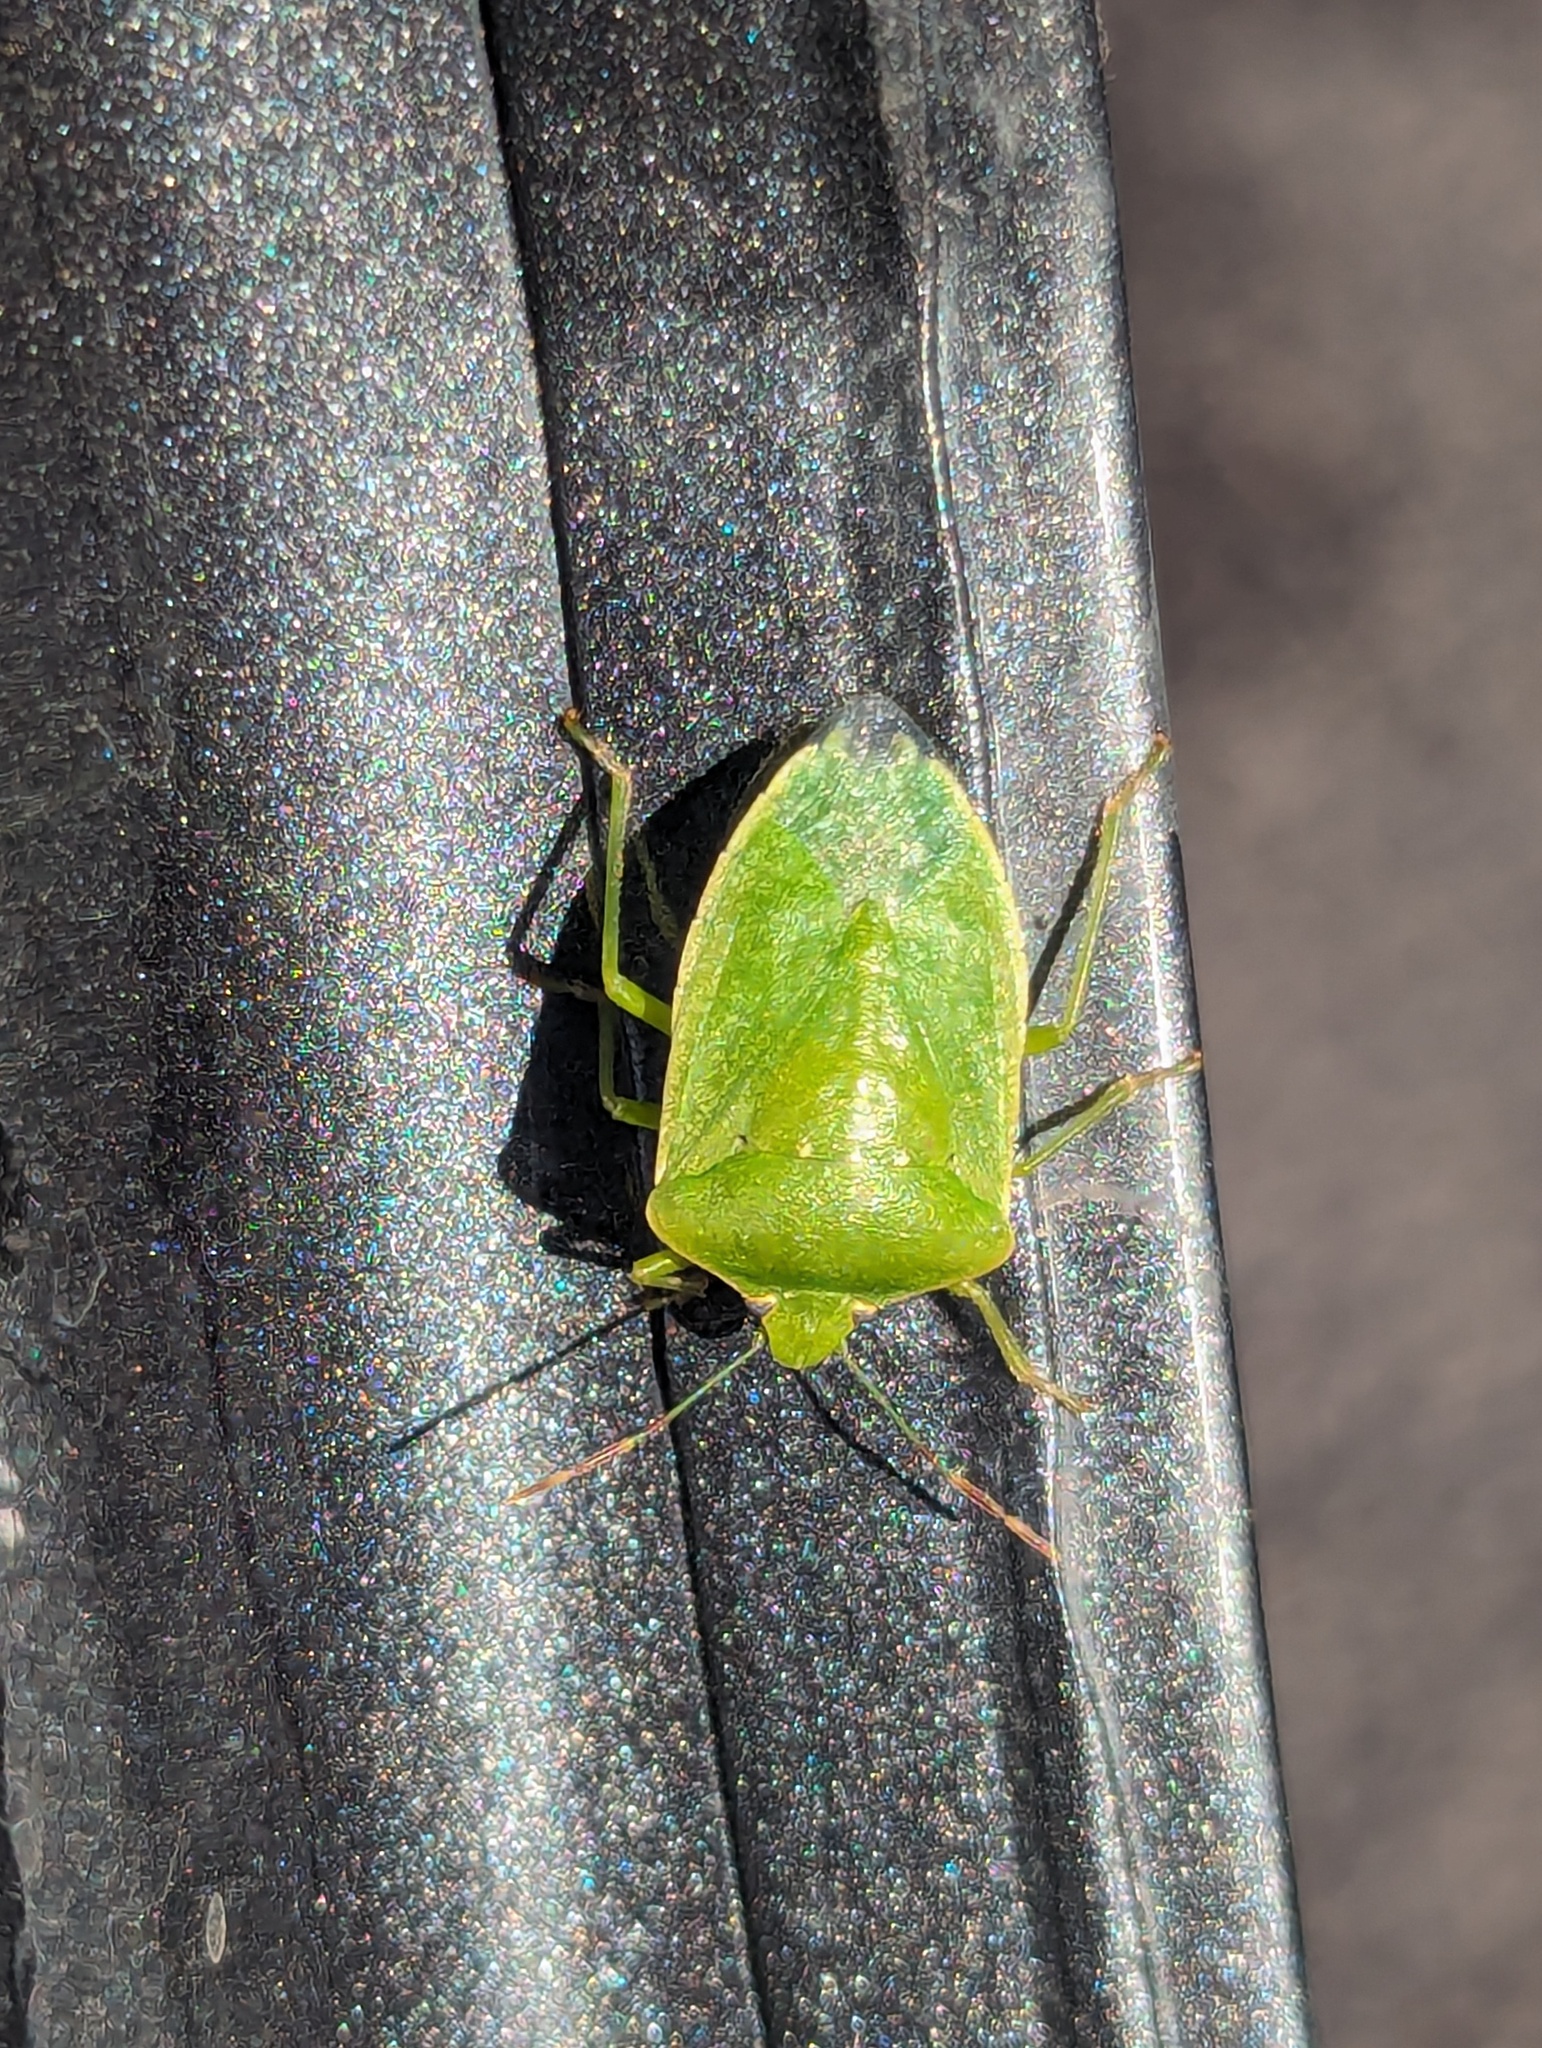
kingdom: Animalia
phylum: Arthropoda
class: Insecta
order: Hemiptera
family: Pentatomidae
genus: Nezara
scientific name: Nezara viridula
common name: Southern green stink bug
